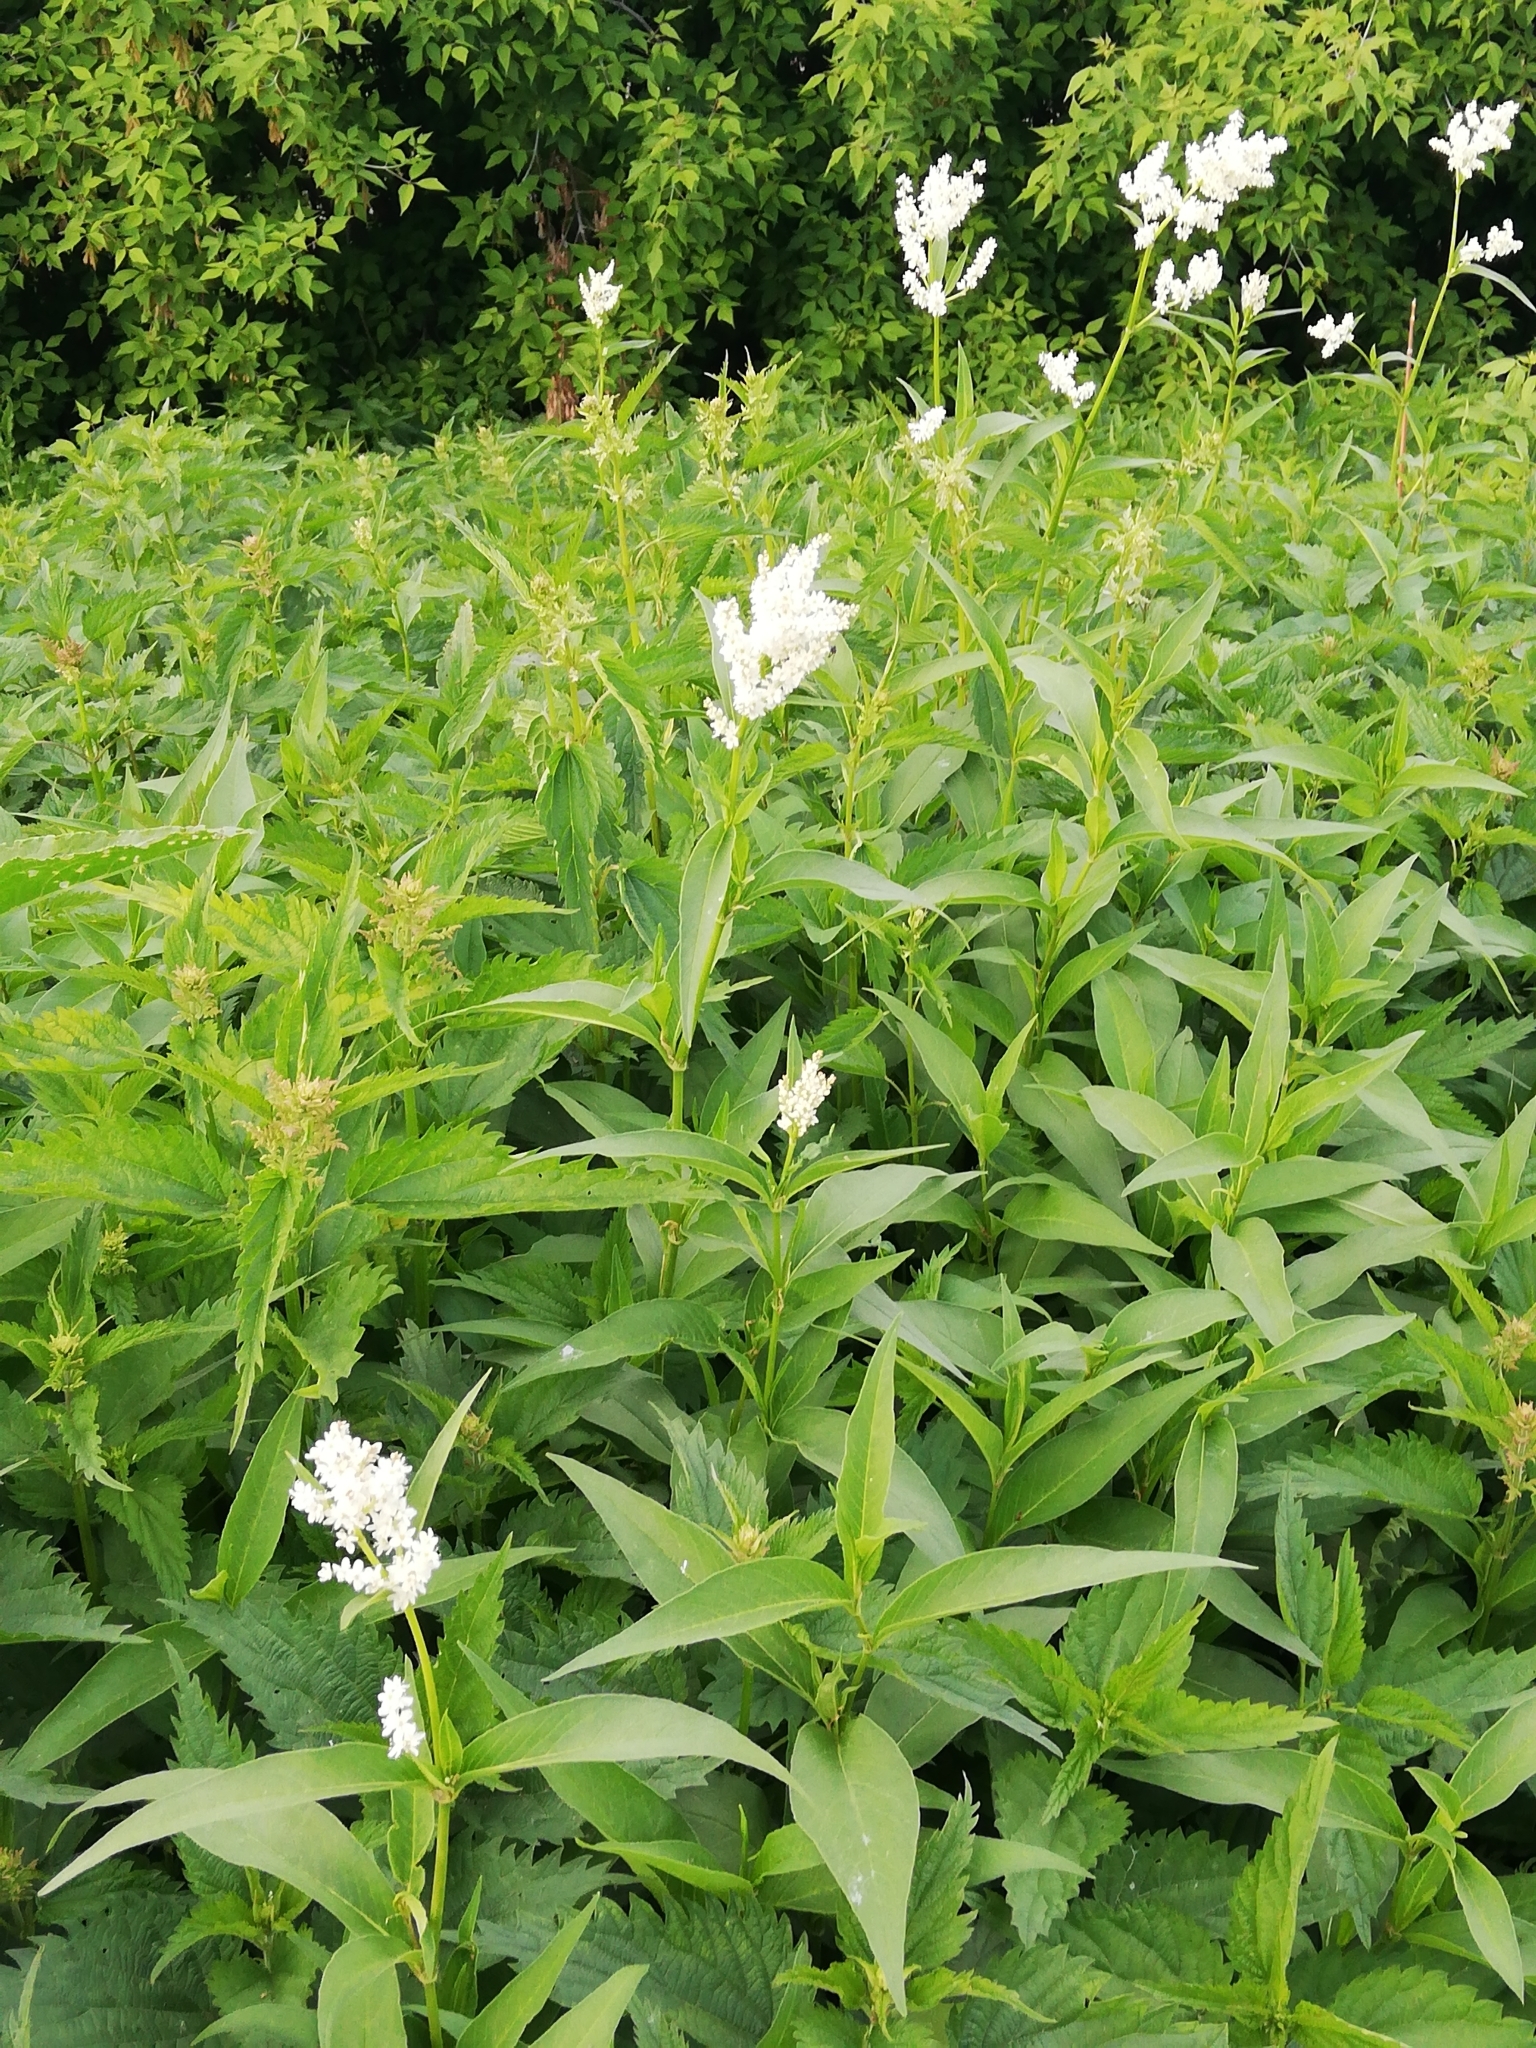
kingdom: Plantae
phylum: Tracheophyta
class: Magnoliopsida
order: Caryophyllales
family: Polygonaceae
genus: Koenigia
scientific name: Koenigia alpina
